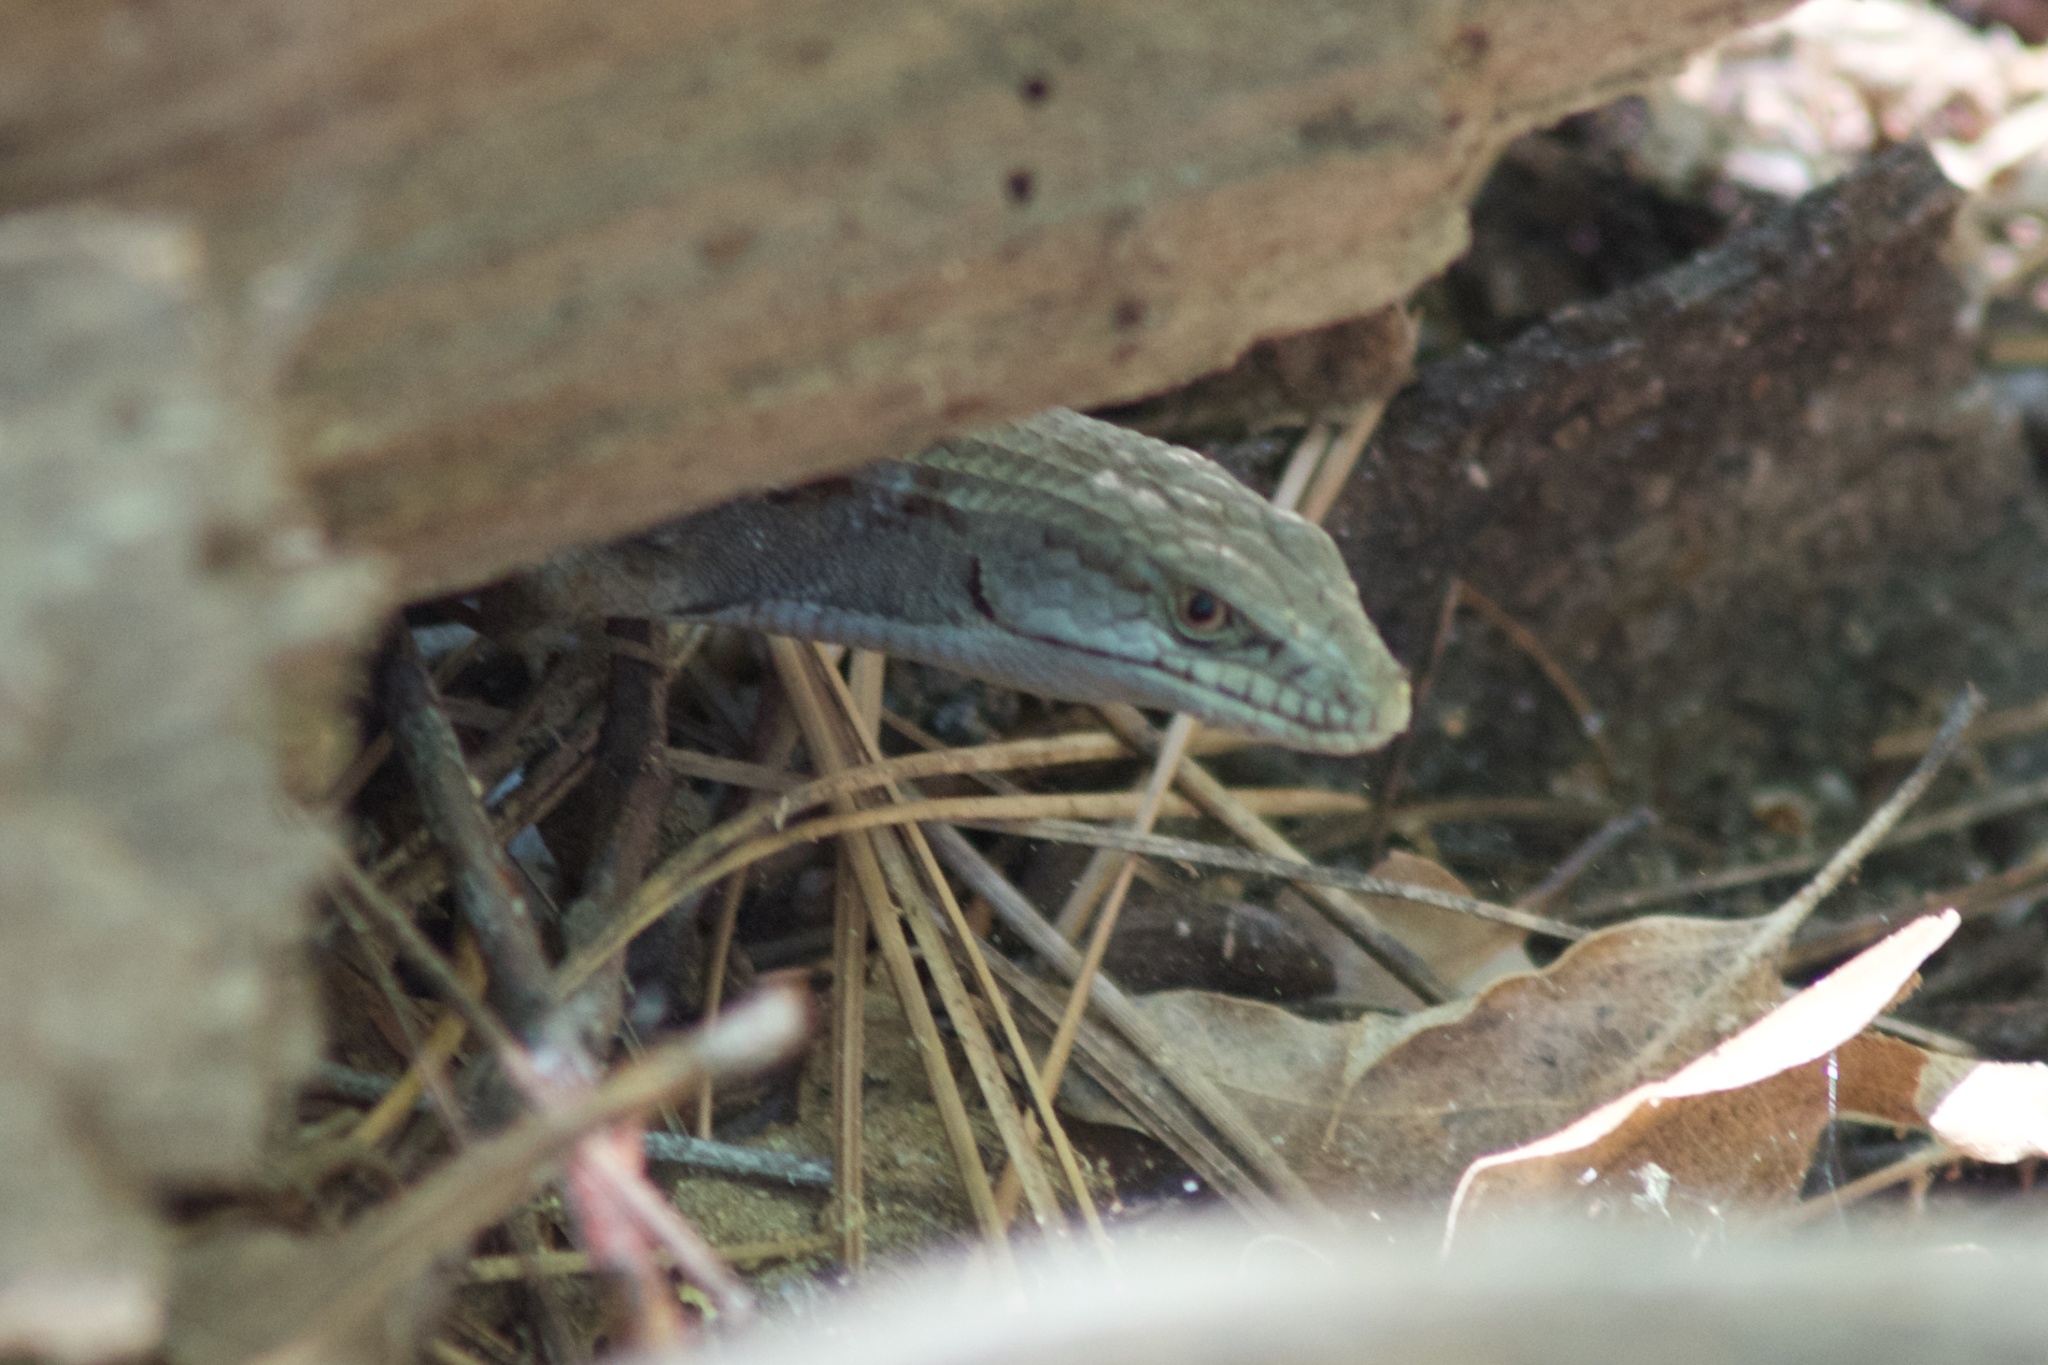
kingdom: Animalia
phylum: Chordata
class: Squamata
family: Anguidae
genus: Elgaria
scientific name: Elgaria multicarinata
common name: Southern alligator lizard
